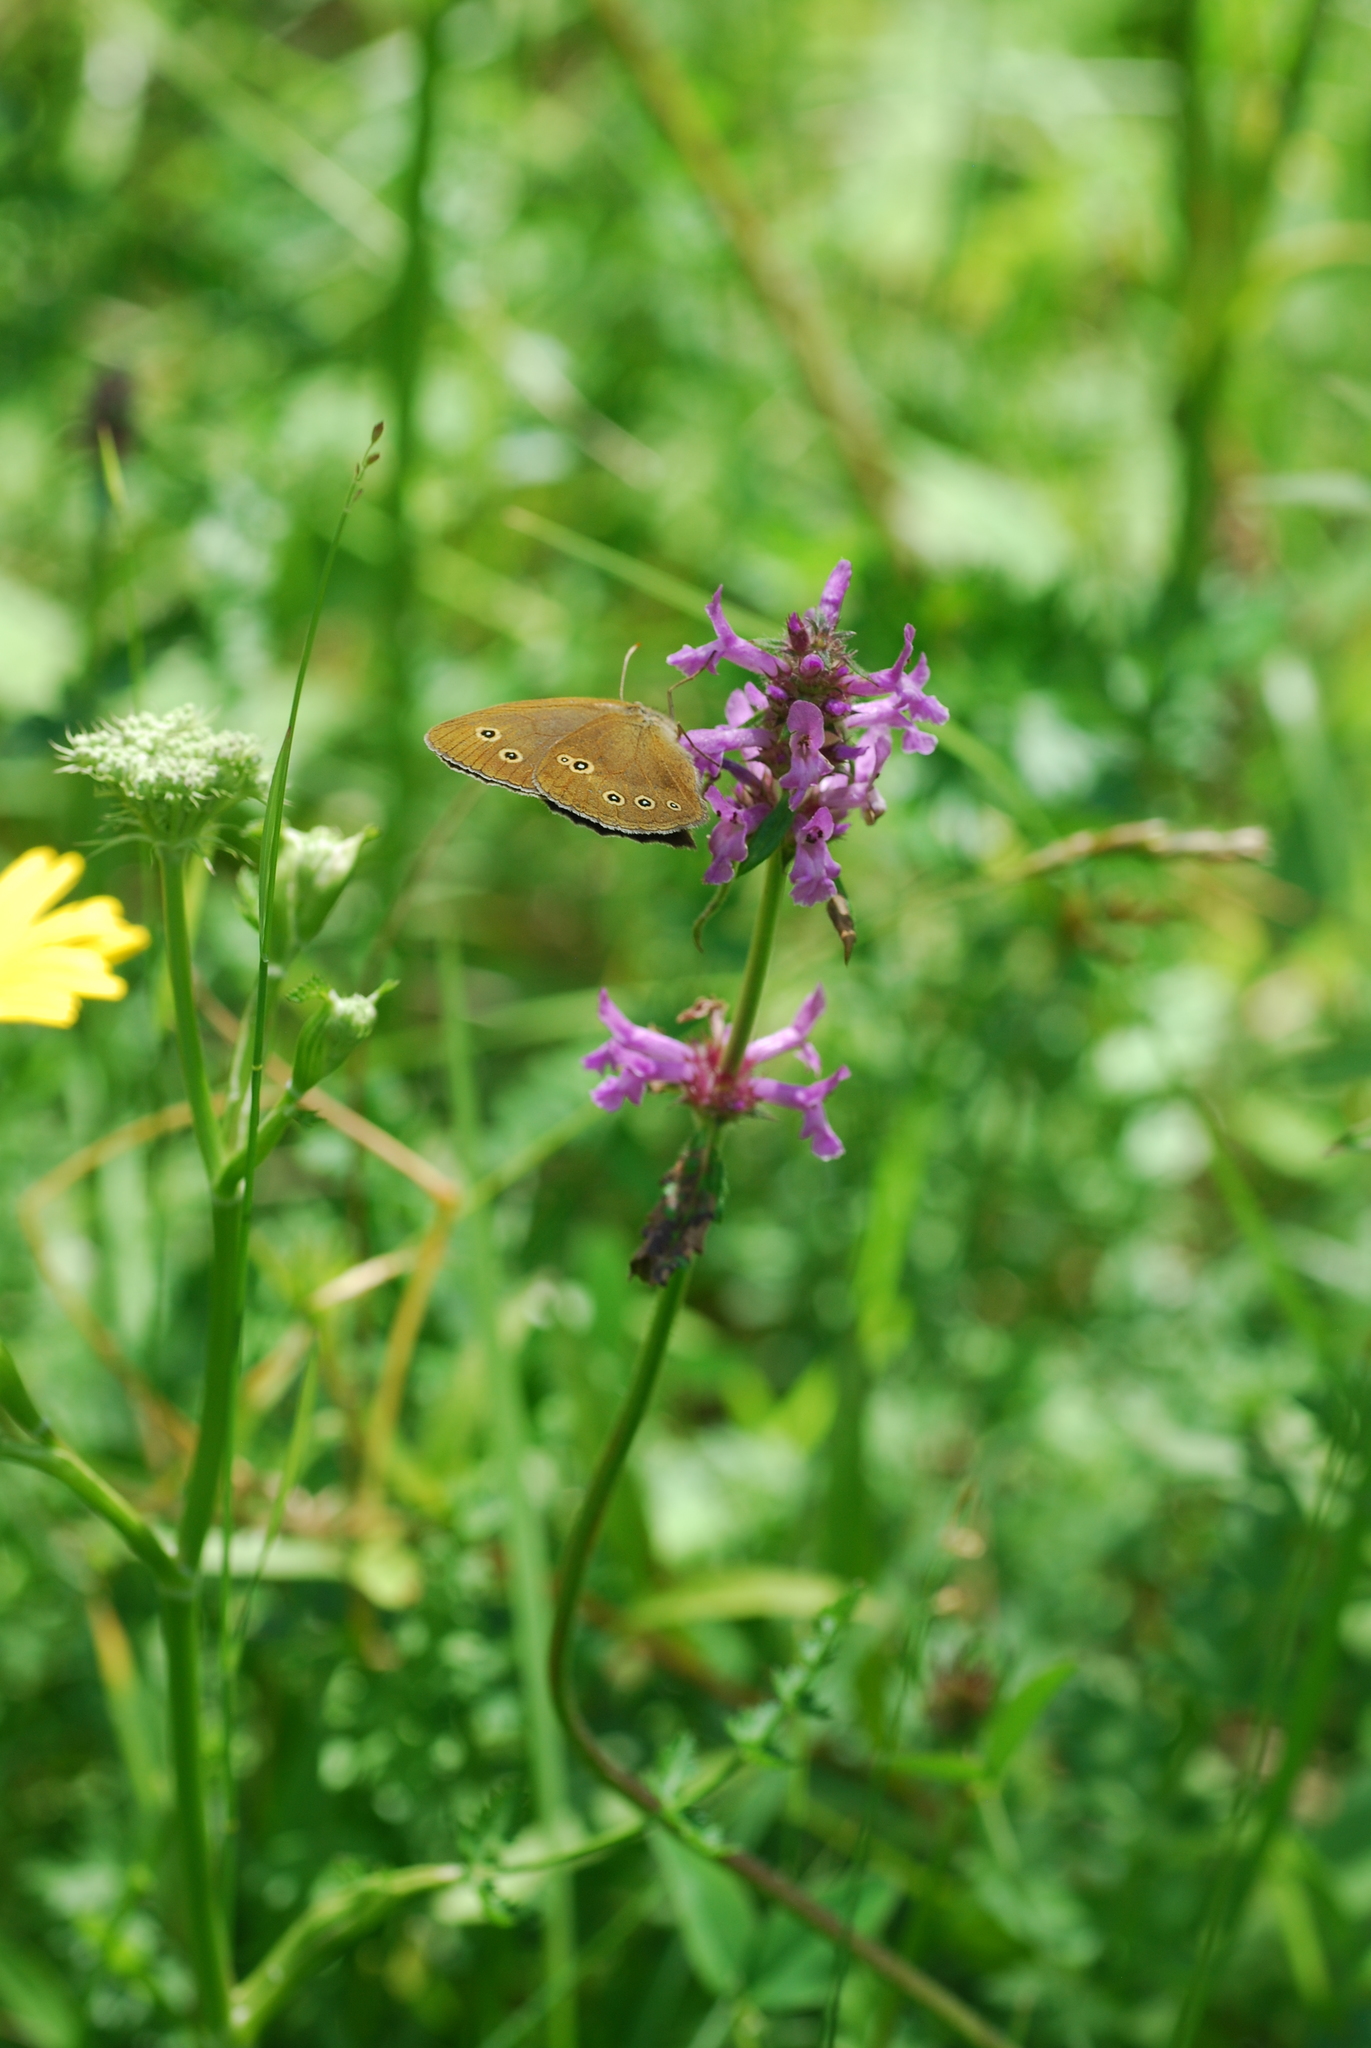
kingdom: Animalia
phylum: Arthropoda
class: Insecta
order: Lepidoptera
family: Nymphalidae
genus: Aphantopus
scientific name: Aphantopus hyperantus
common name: Ringlet
